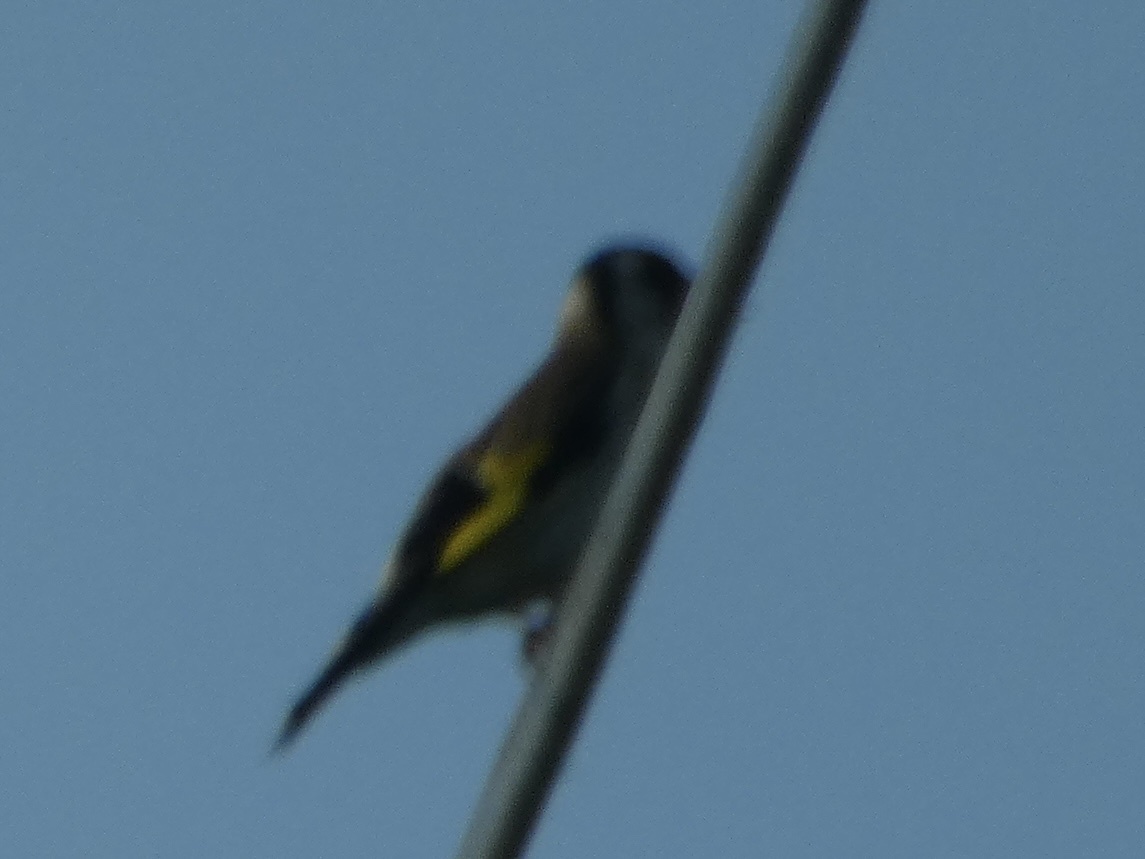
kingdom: Animalia
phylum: Chordata
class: Aves
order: Passeriformes
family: Fringillidae
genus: Carduelis
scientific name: Carduelis carduelis
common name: European goldfinch
